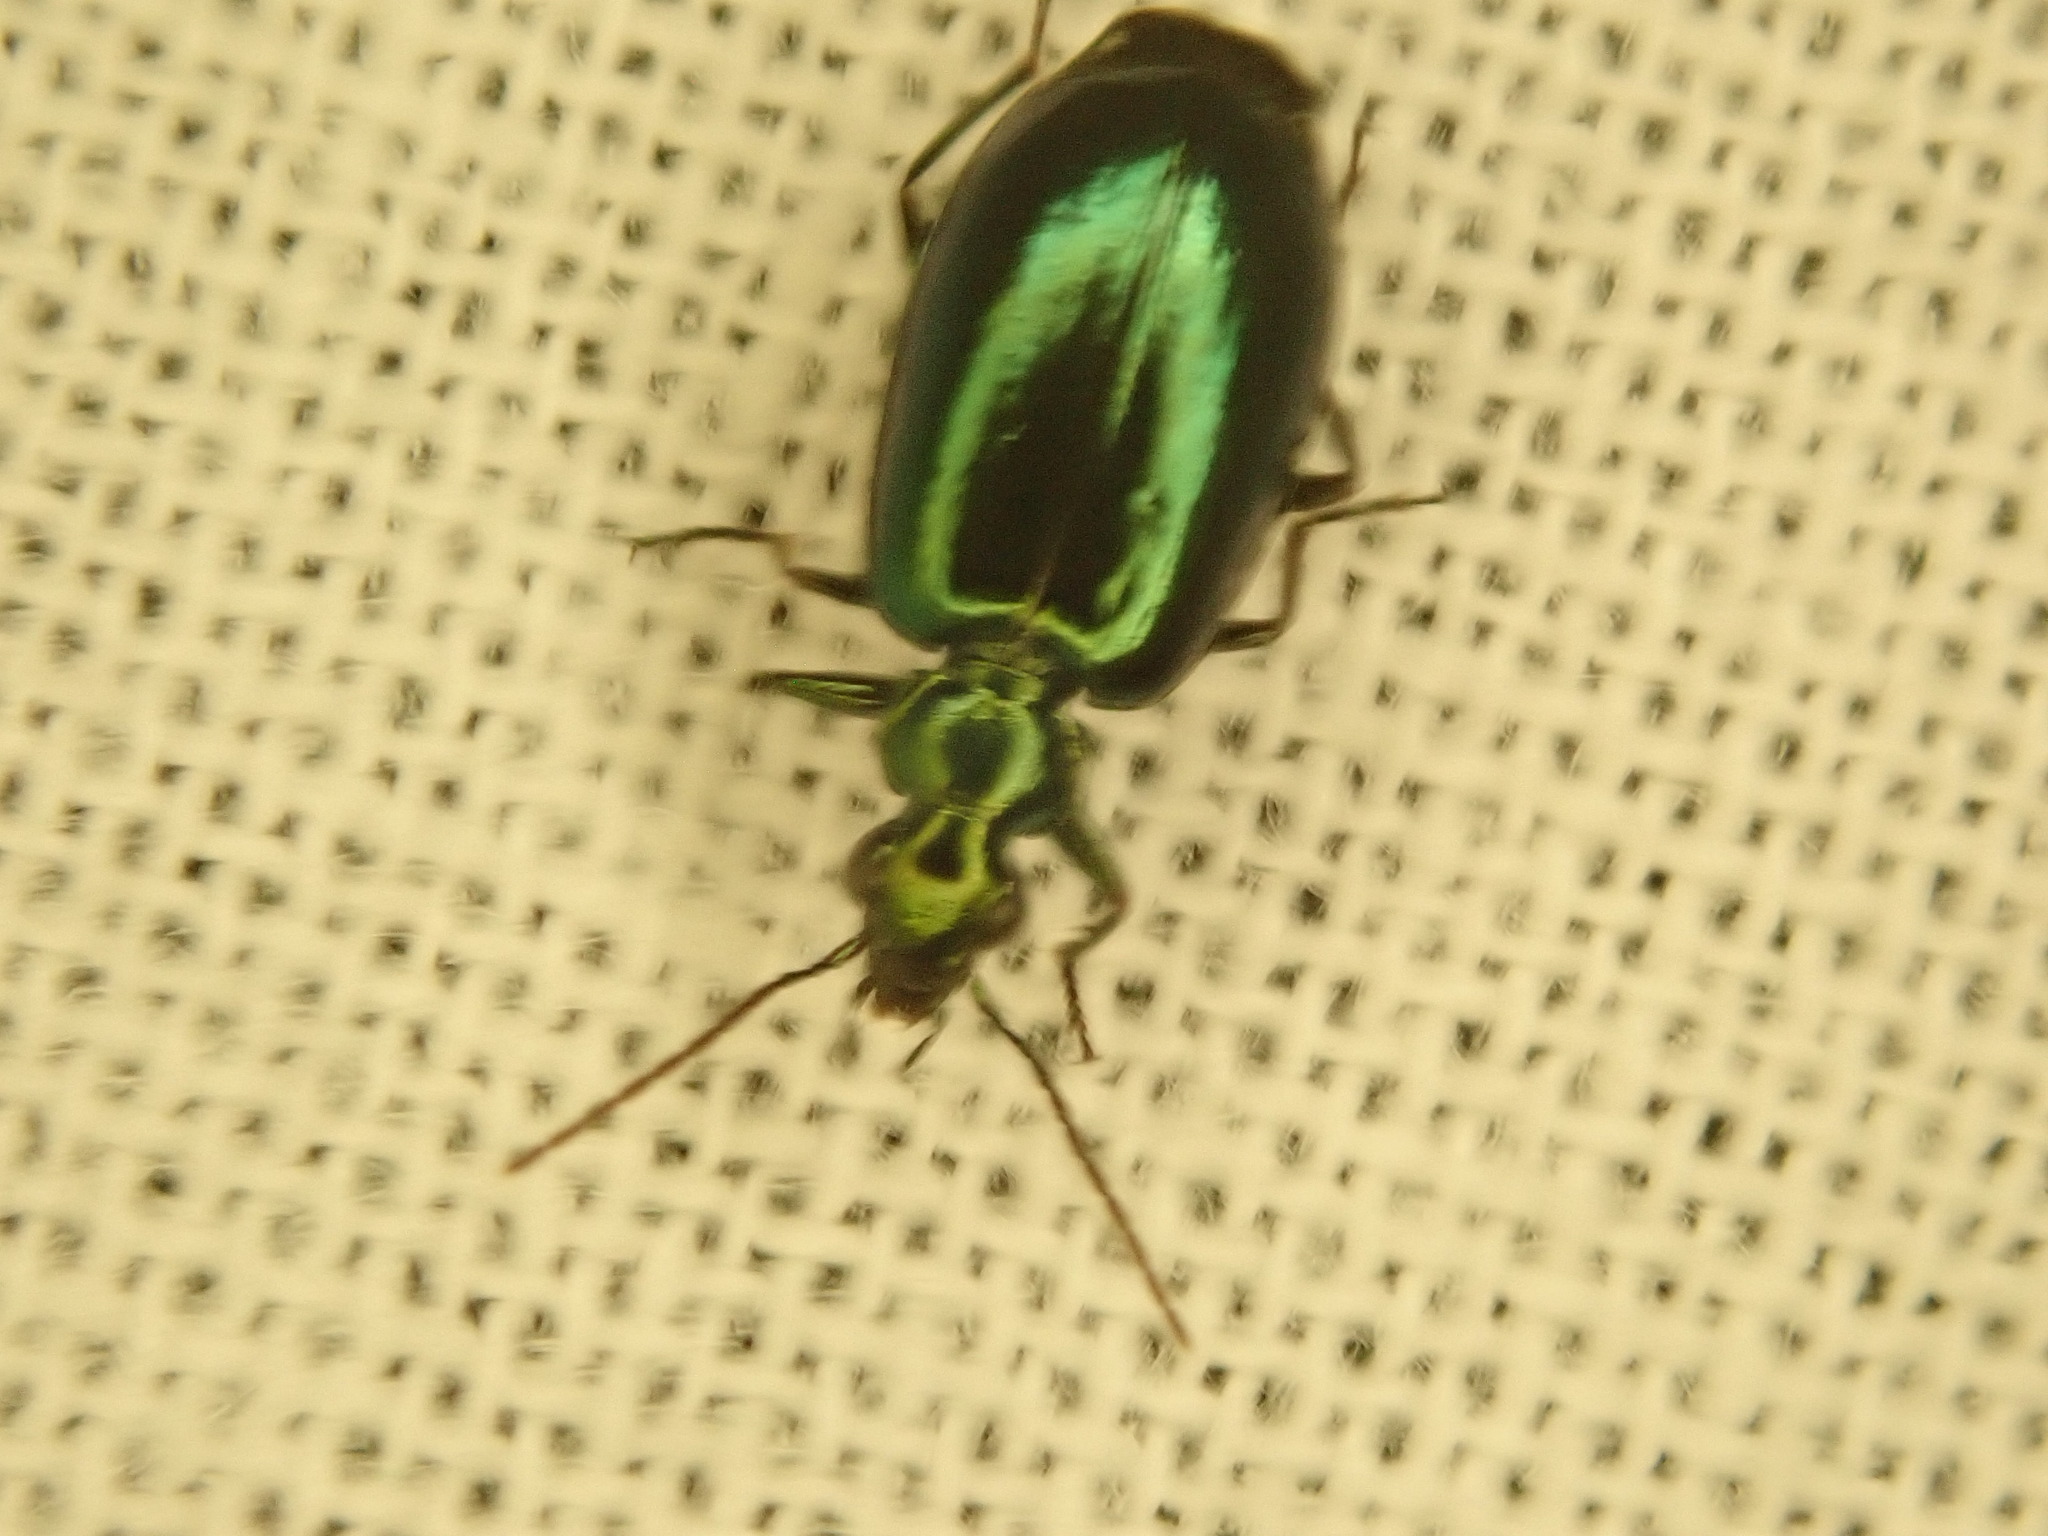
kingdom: Animalia
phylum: Arthropoda
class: Insecta
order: Coleoptera
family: Carabidae
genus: Lebia
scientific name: Lebia viridis
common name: Flower lebia beetle
